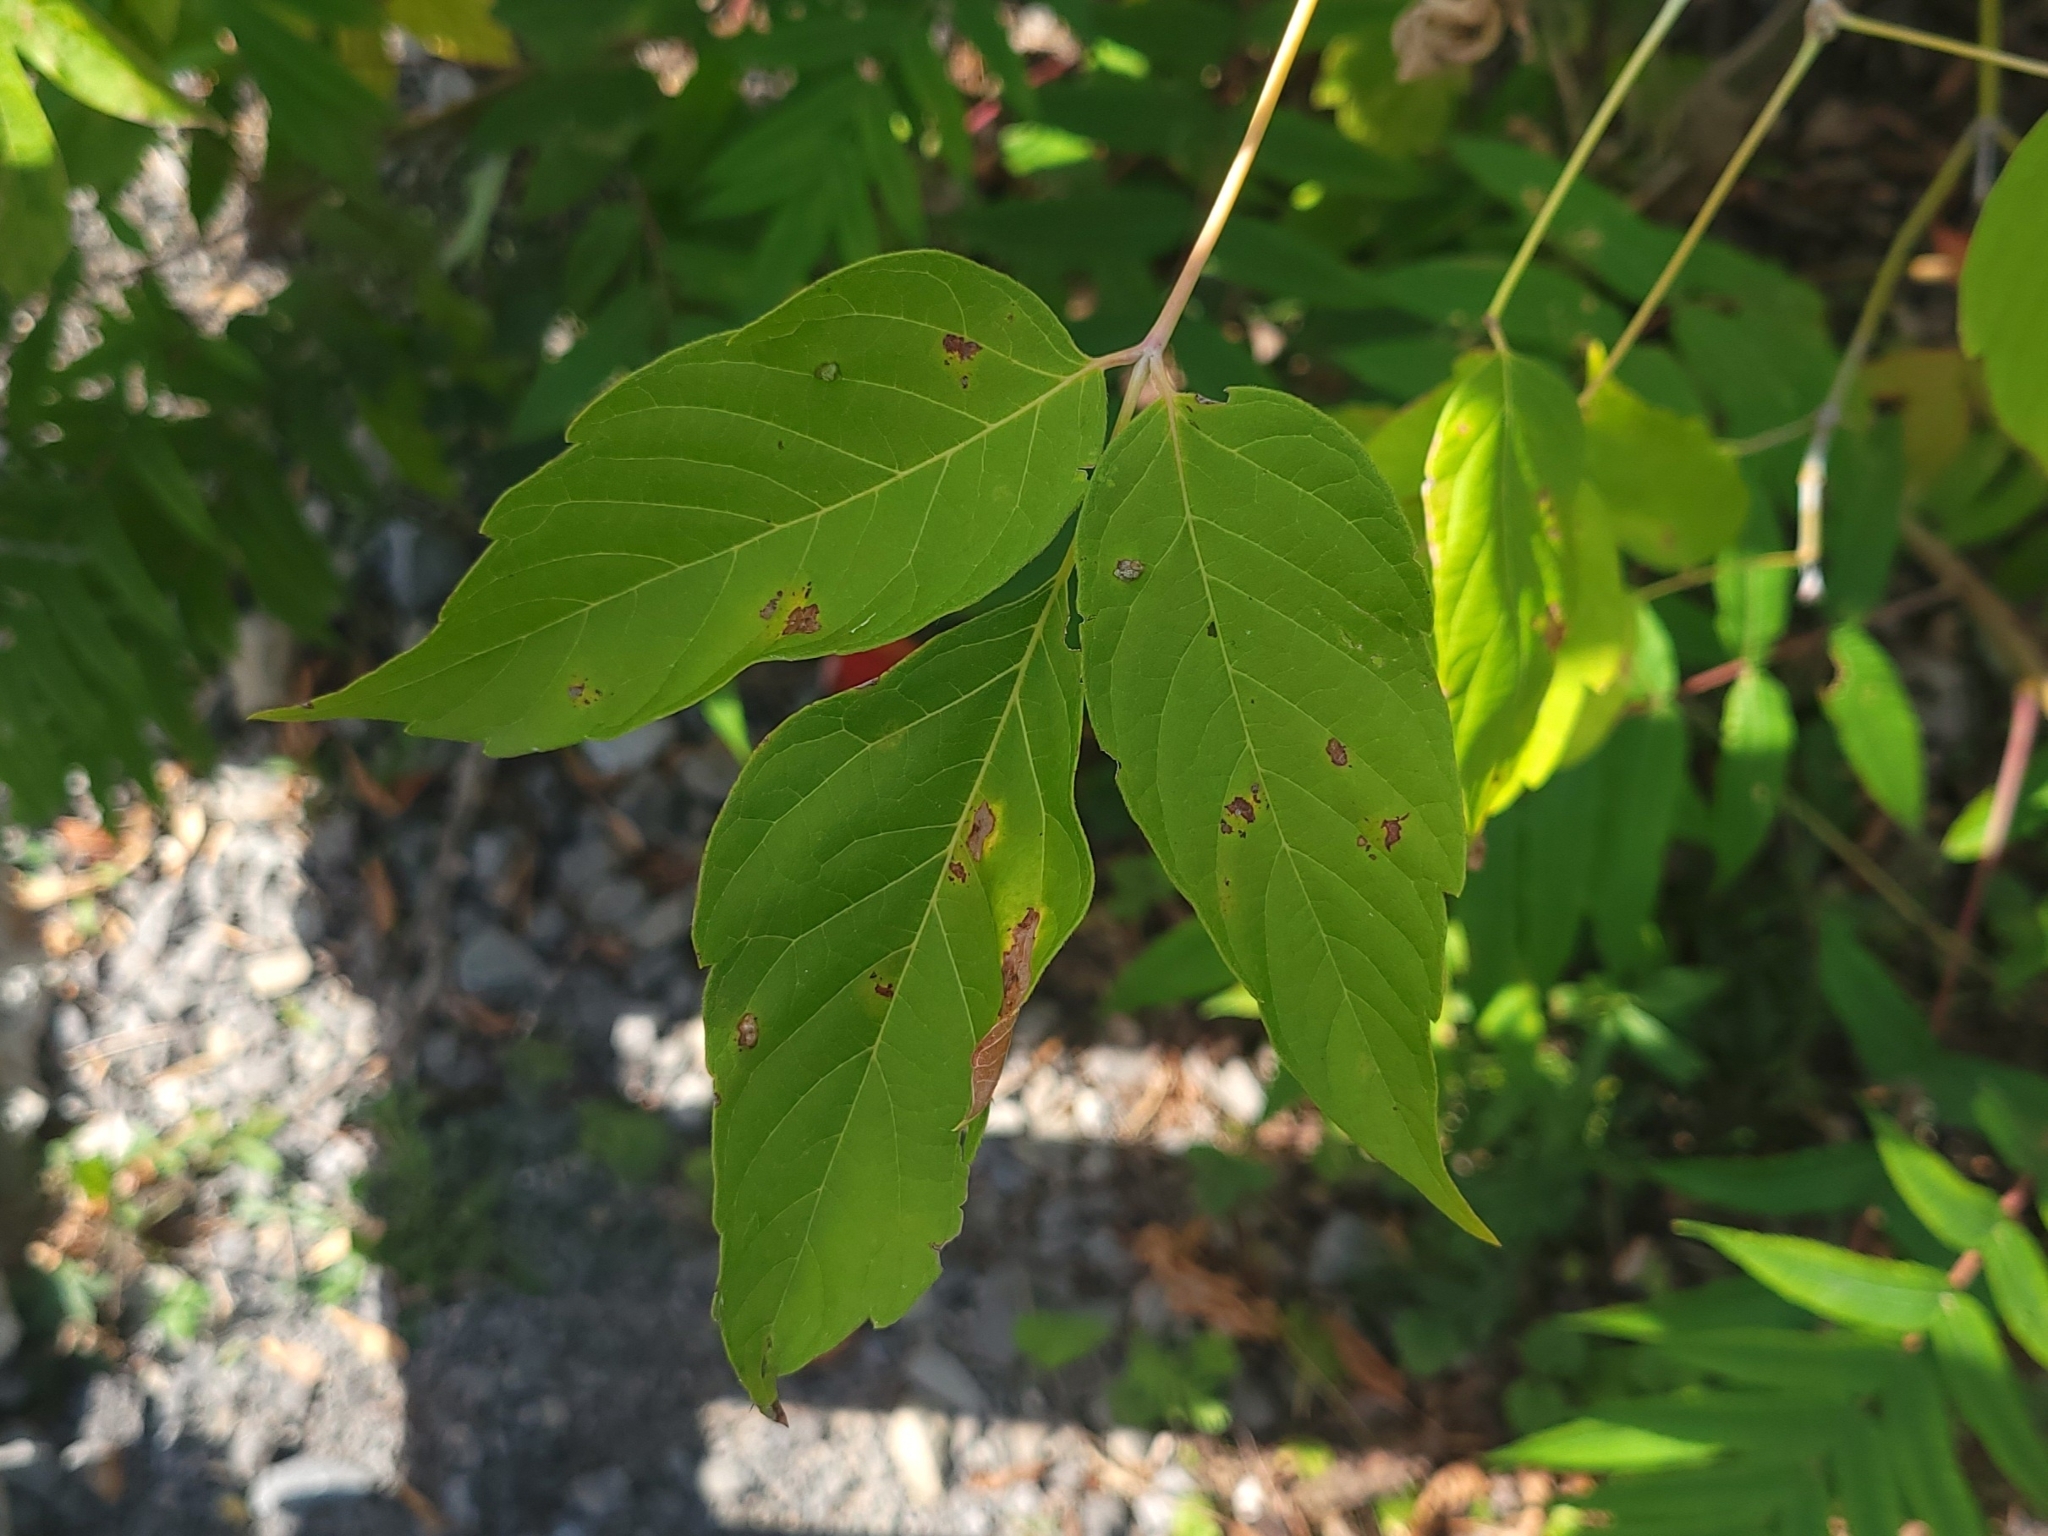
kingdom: Plantae
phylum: Tracheophyta
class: Magnoliopsida
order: Sapindales
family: Sapindaceae
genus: Acer
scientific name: Acer negundo
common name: Ashleaf maple
